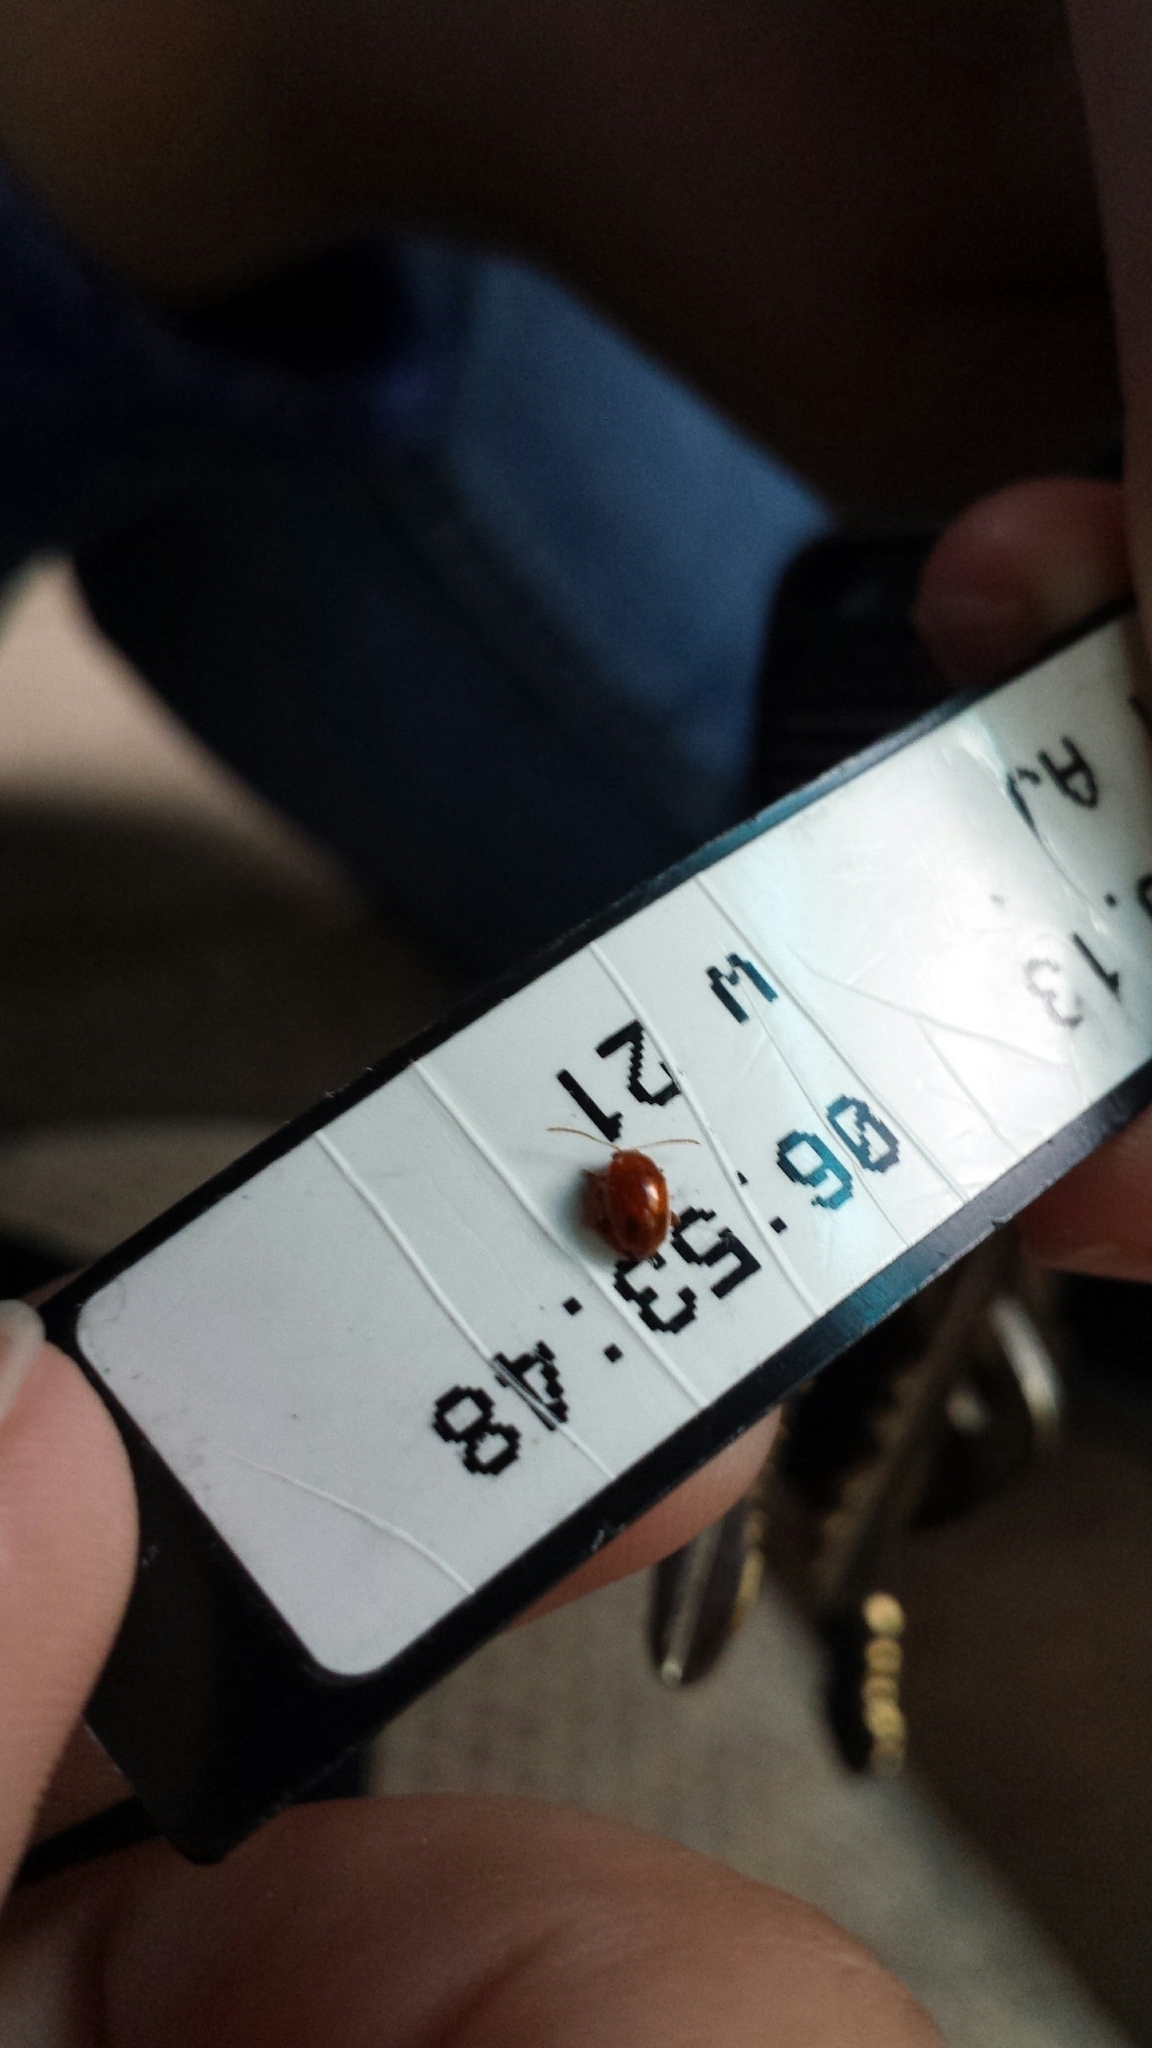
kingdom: Animalia
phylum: Arthropoda
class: Insecta
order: Coleoptera
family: Chrysomelidae
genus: Pistosia
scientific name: Pistosia testacea
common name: Leaf beetle
